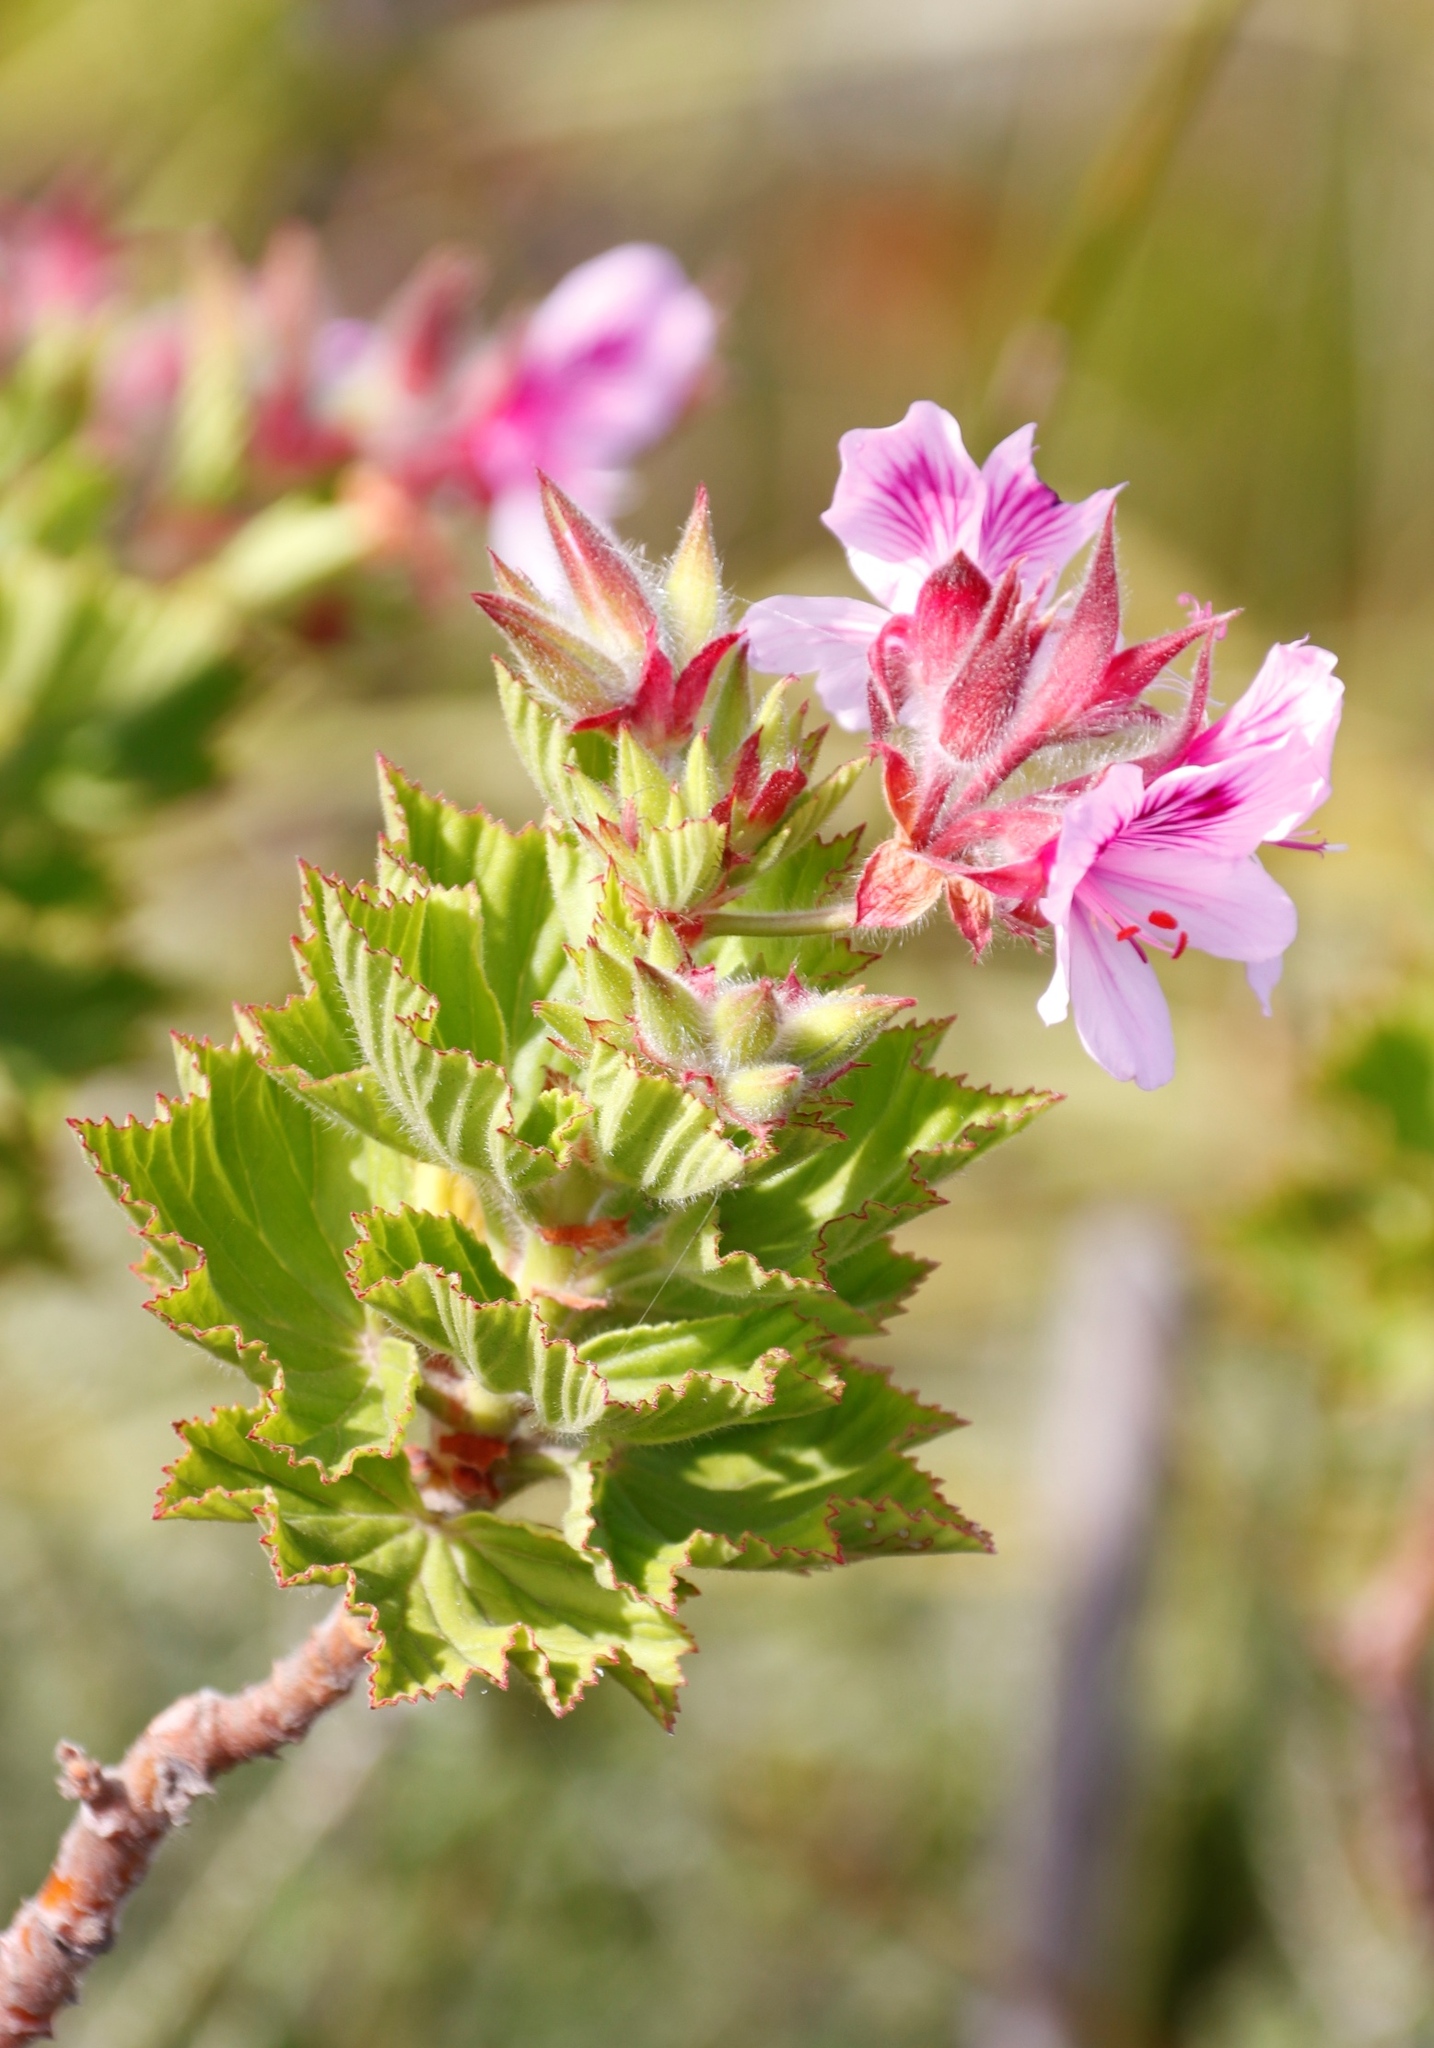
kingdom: Plantae
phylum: Tracheophyta
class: Magnoliopsida
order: Geraniales
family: Geraniaceae
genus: Pelargonium
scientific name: Pelargonium cucullatum
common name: Tree pelargonium
